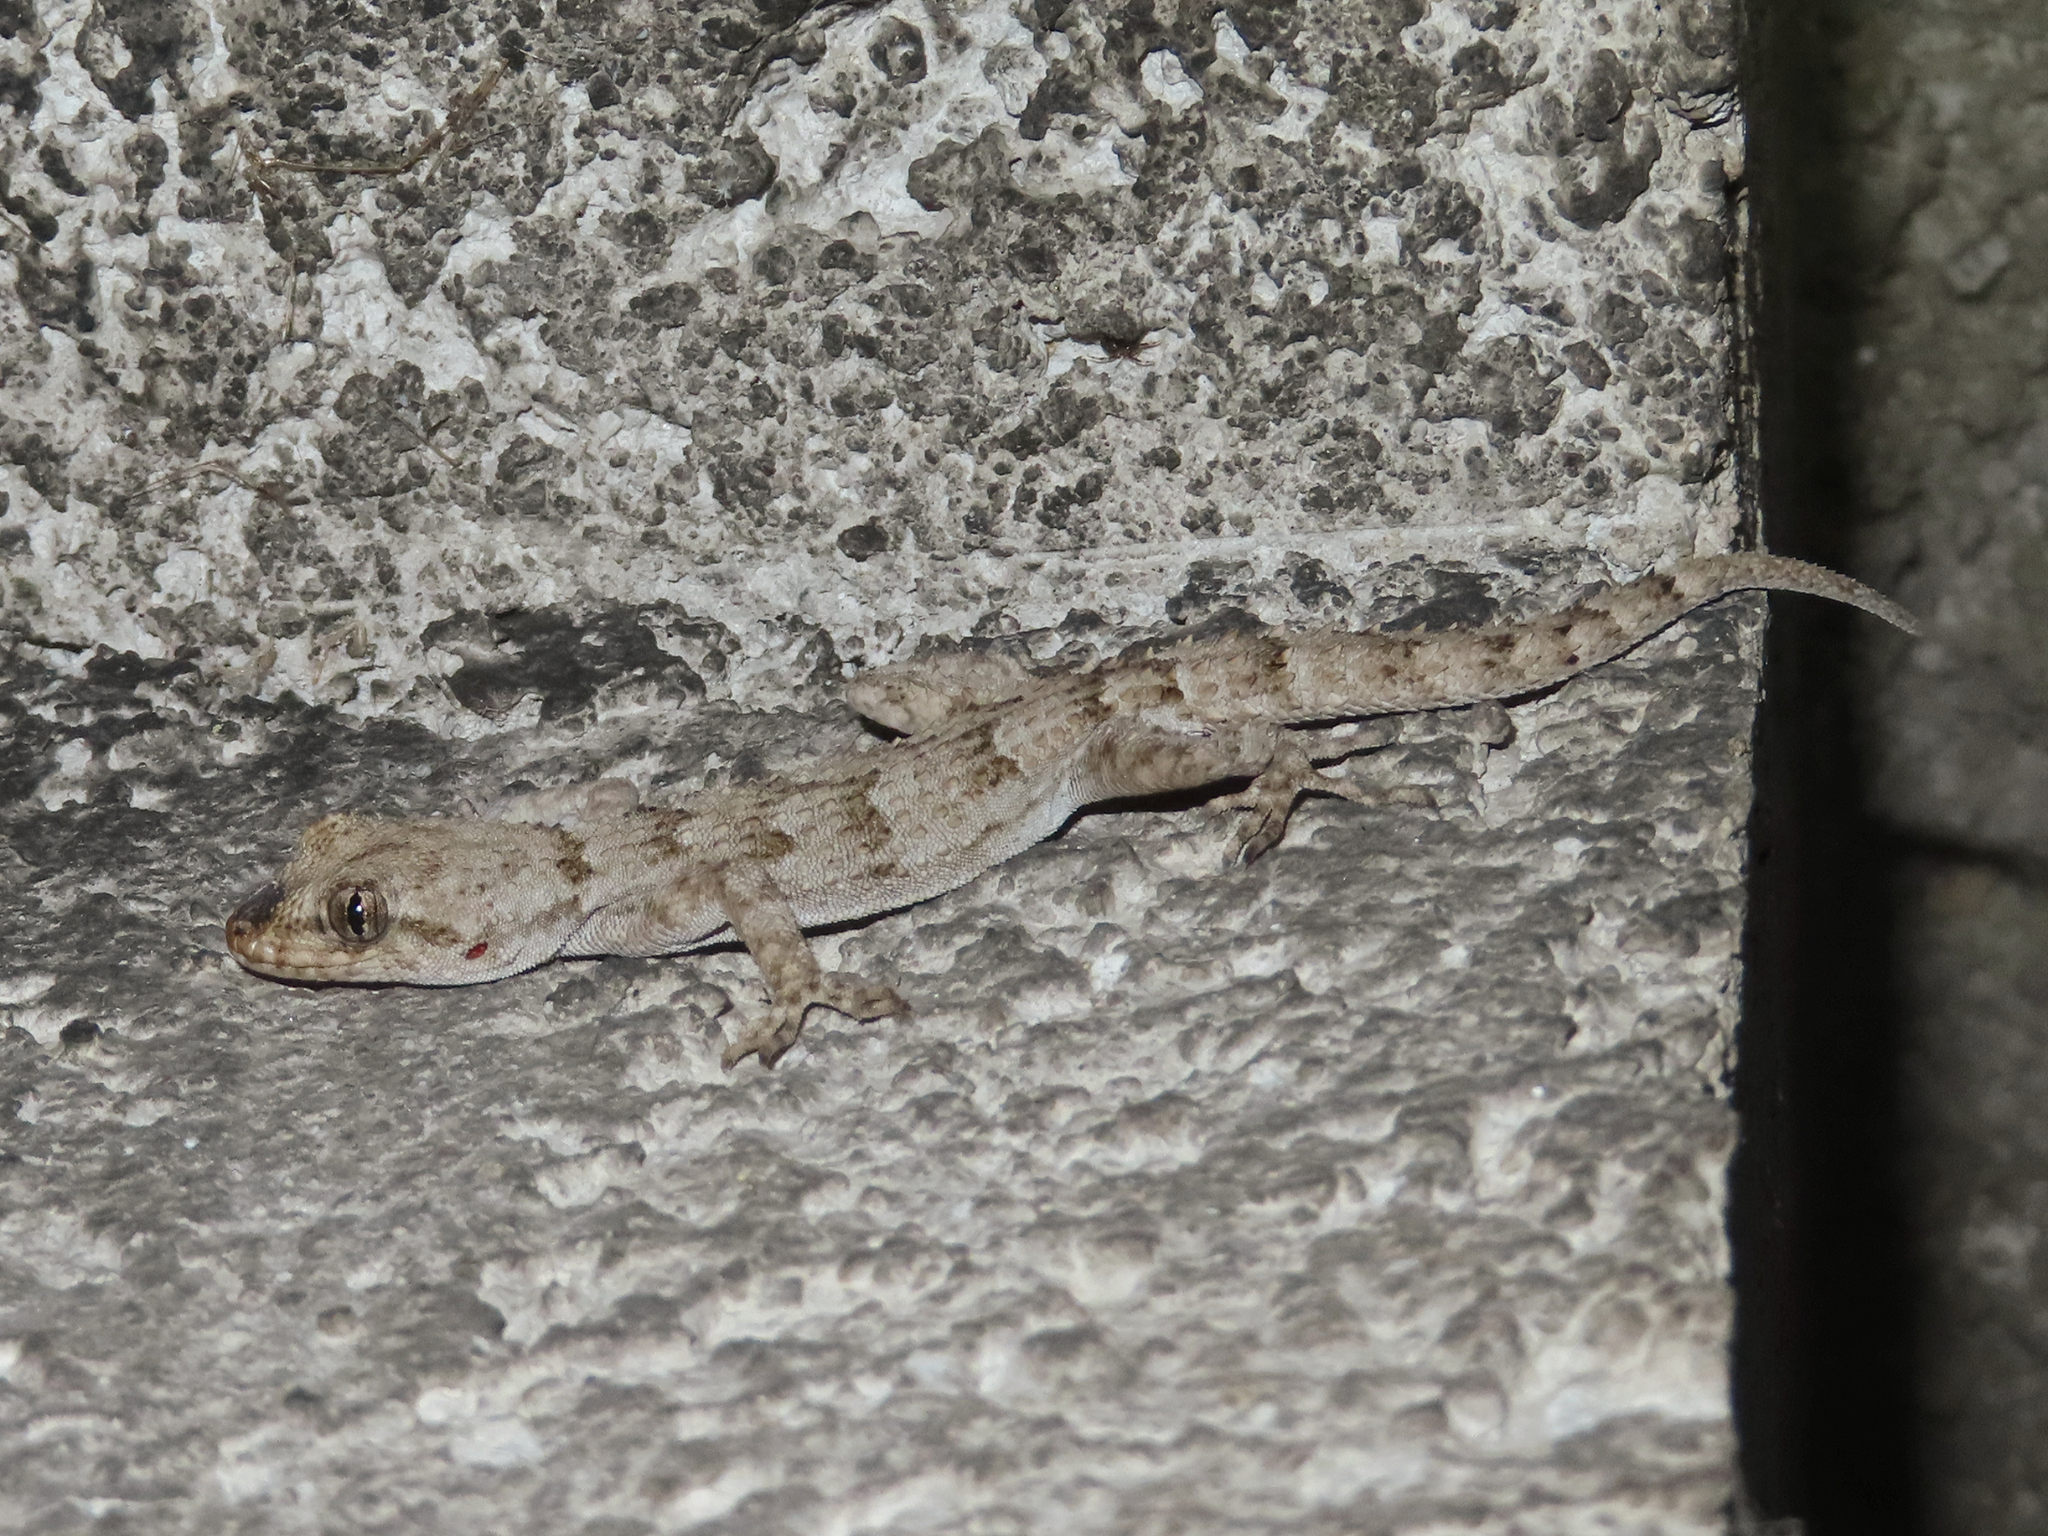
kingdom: Animalia
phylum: Chordata
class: Squamata
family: Gekkonidae
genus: Mediodactylus
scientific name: Mediodactylus kotschyi
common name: Kotschy's gecko
